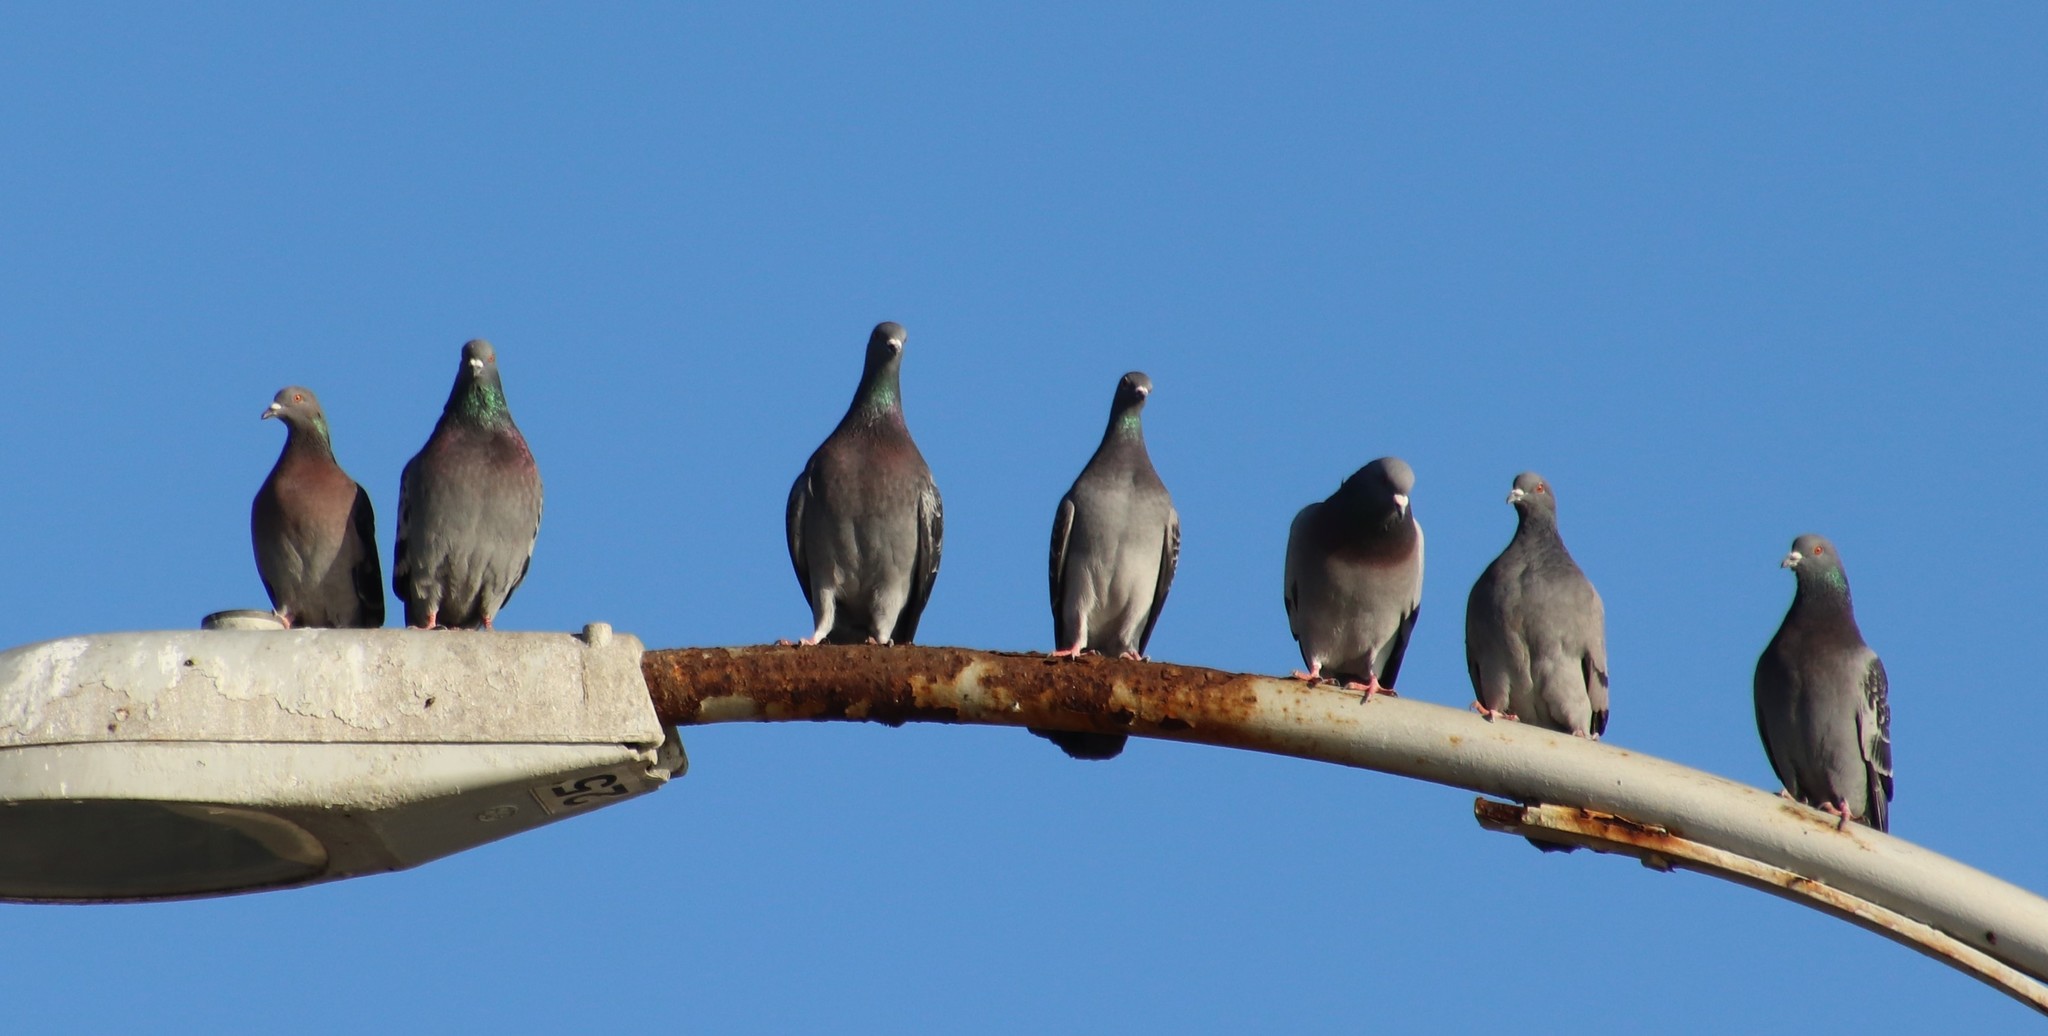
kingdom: Animalia
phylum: Chordata
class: Aves
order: Columbiformes
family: Columbidae
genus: Columba
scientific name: Columba livia
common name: Rock pigeon
